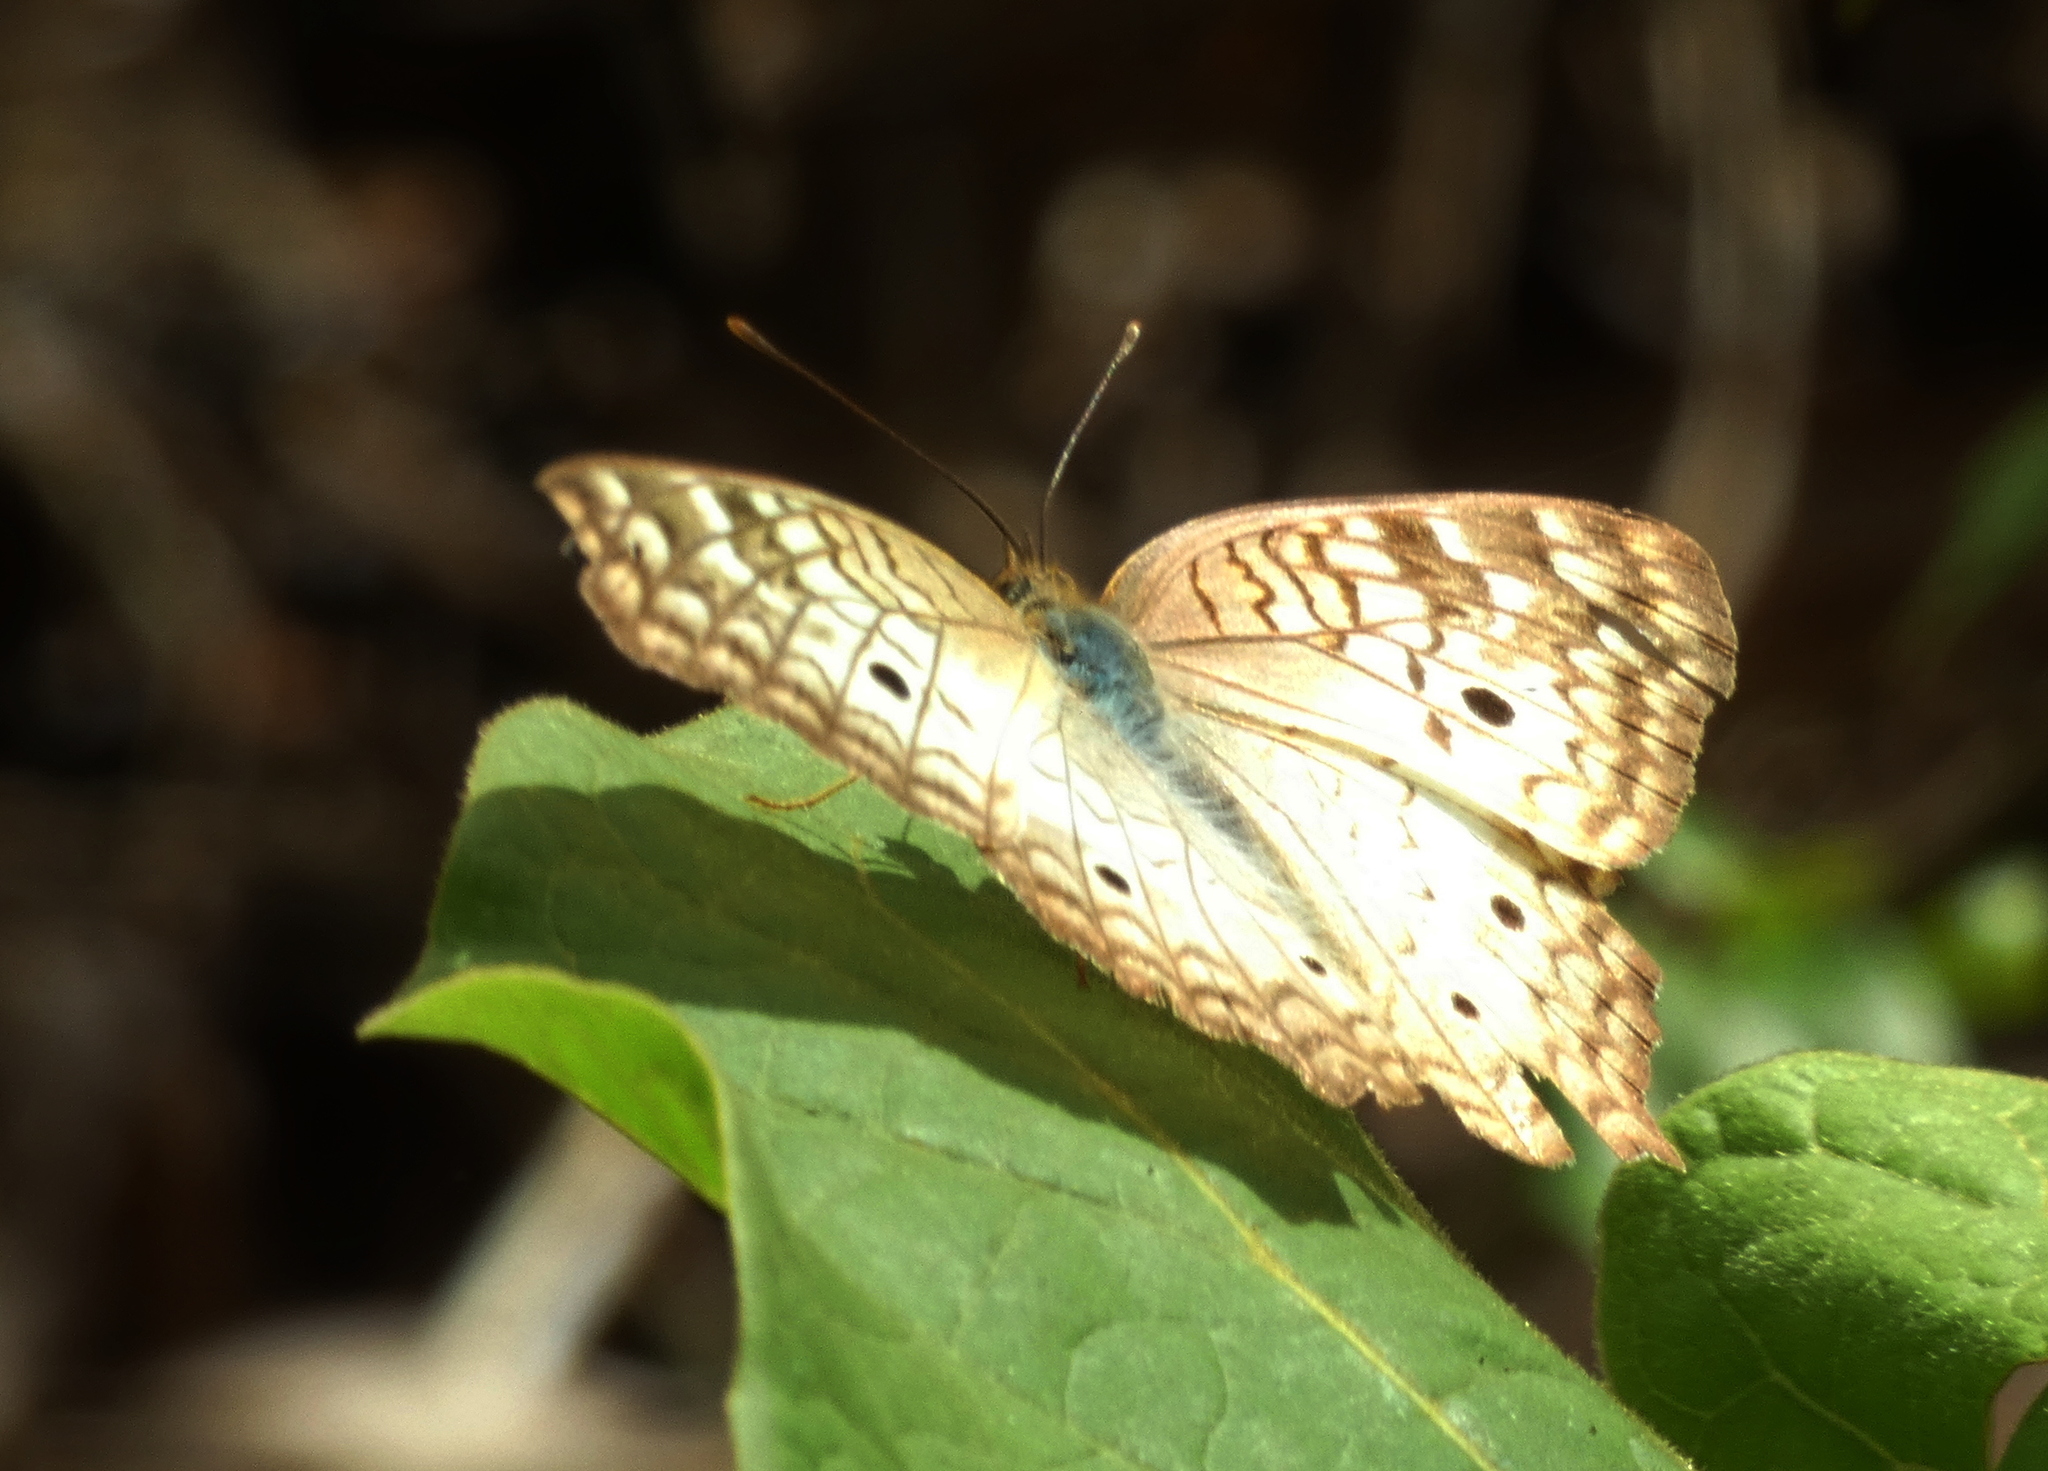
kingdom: Animalia
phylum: Arthropoda
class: Insecta
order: Lepidoptera
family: Nymphalidae
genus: Anartia
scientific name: Anartia jatrophae
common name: White peacock
